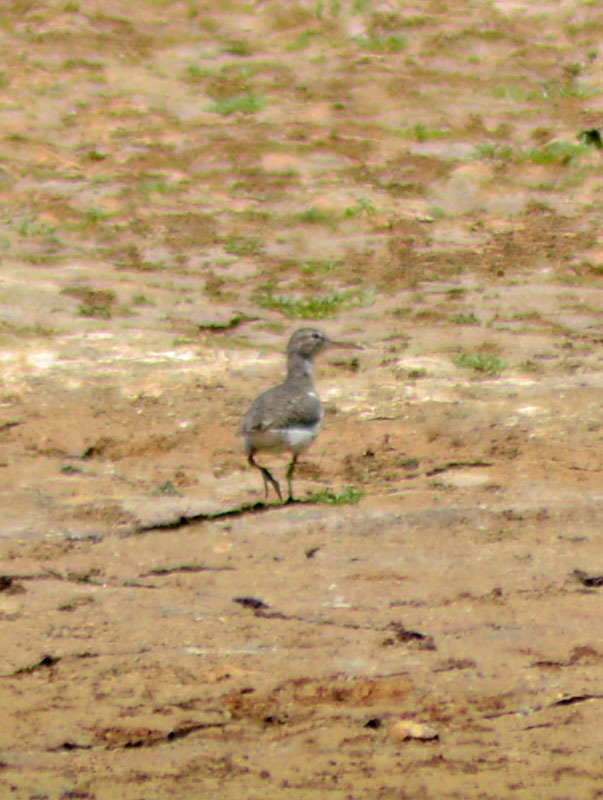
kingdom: Animalia
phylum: Chordata
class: Aves
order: Charadriiformes
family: Scolopacidae
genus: Actitis
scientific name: Actitis macularius
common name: Spotted sandpiper
